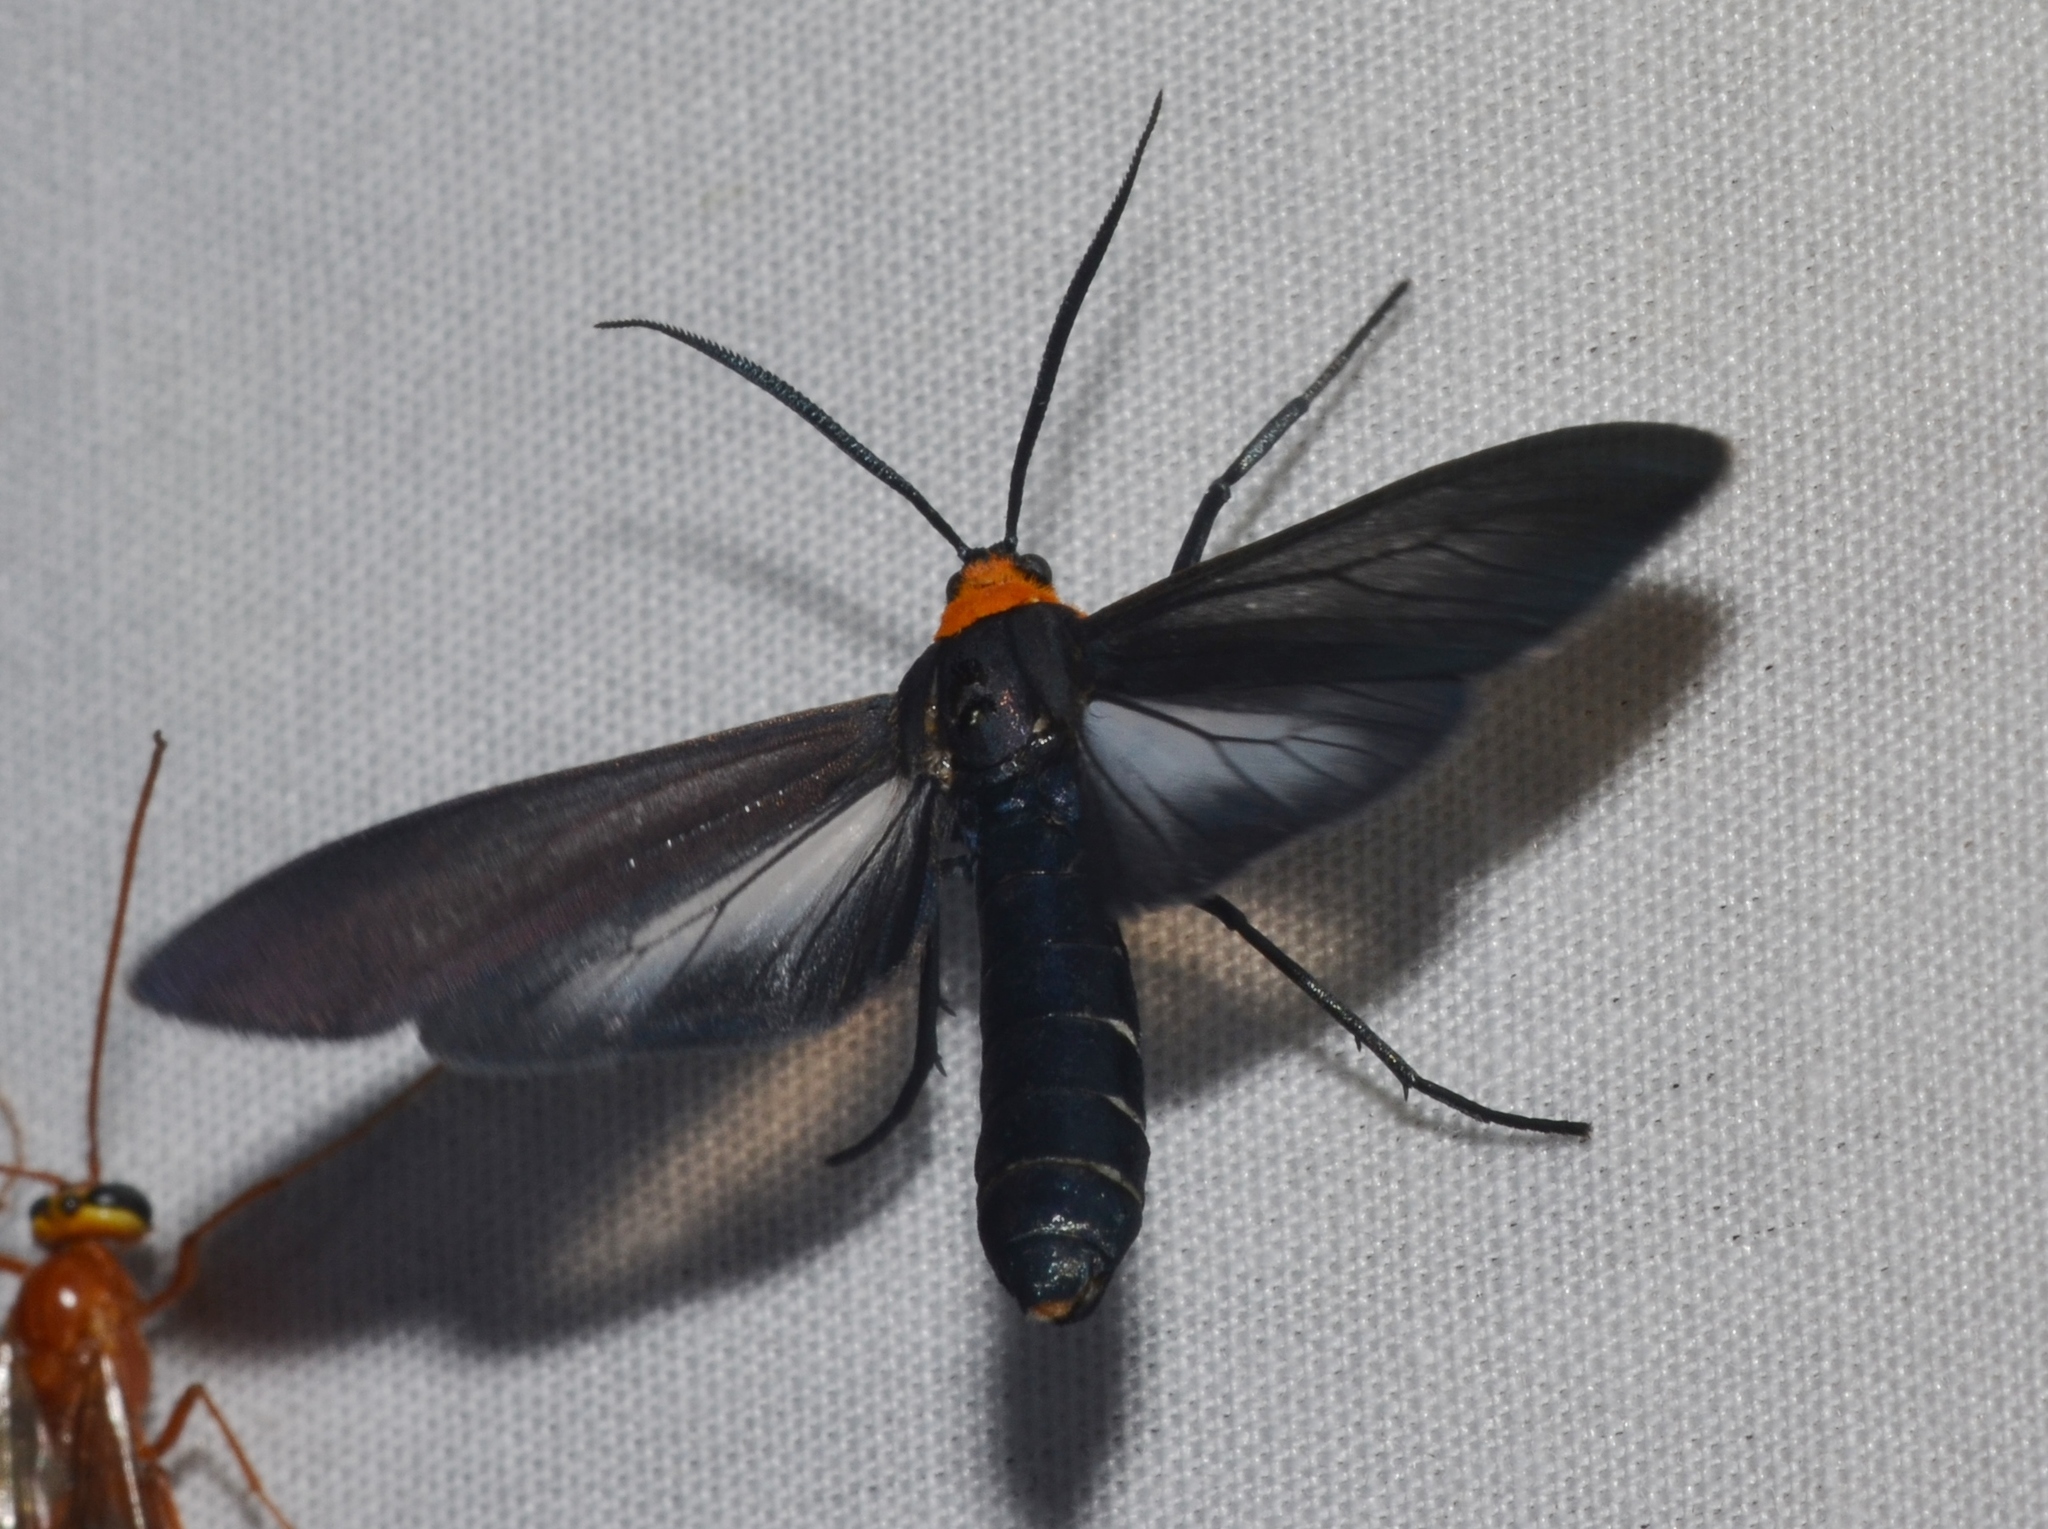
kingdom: Animalia
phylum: Arthropoda
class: Insecta
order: Lepidoptera
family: Erebidae
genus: Cisseps
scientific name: Cisseps fulvicollis
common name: Yellow-collared scape moth
